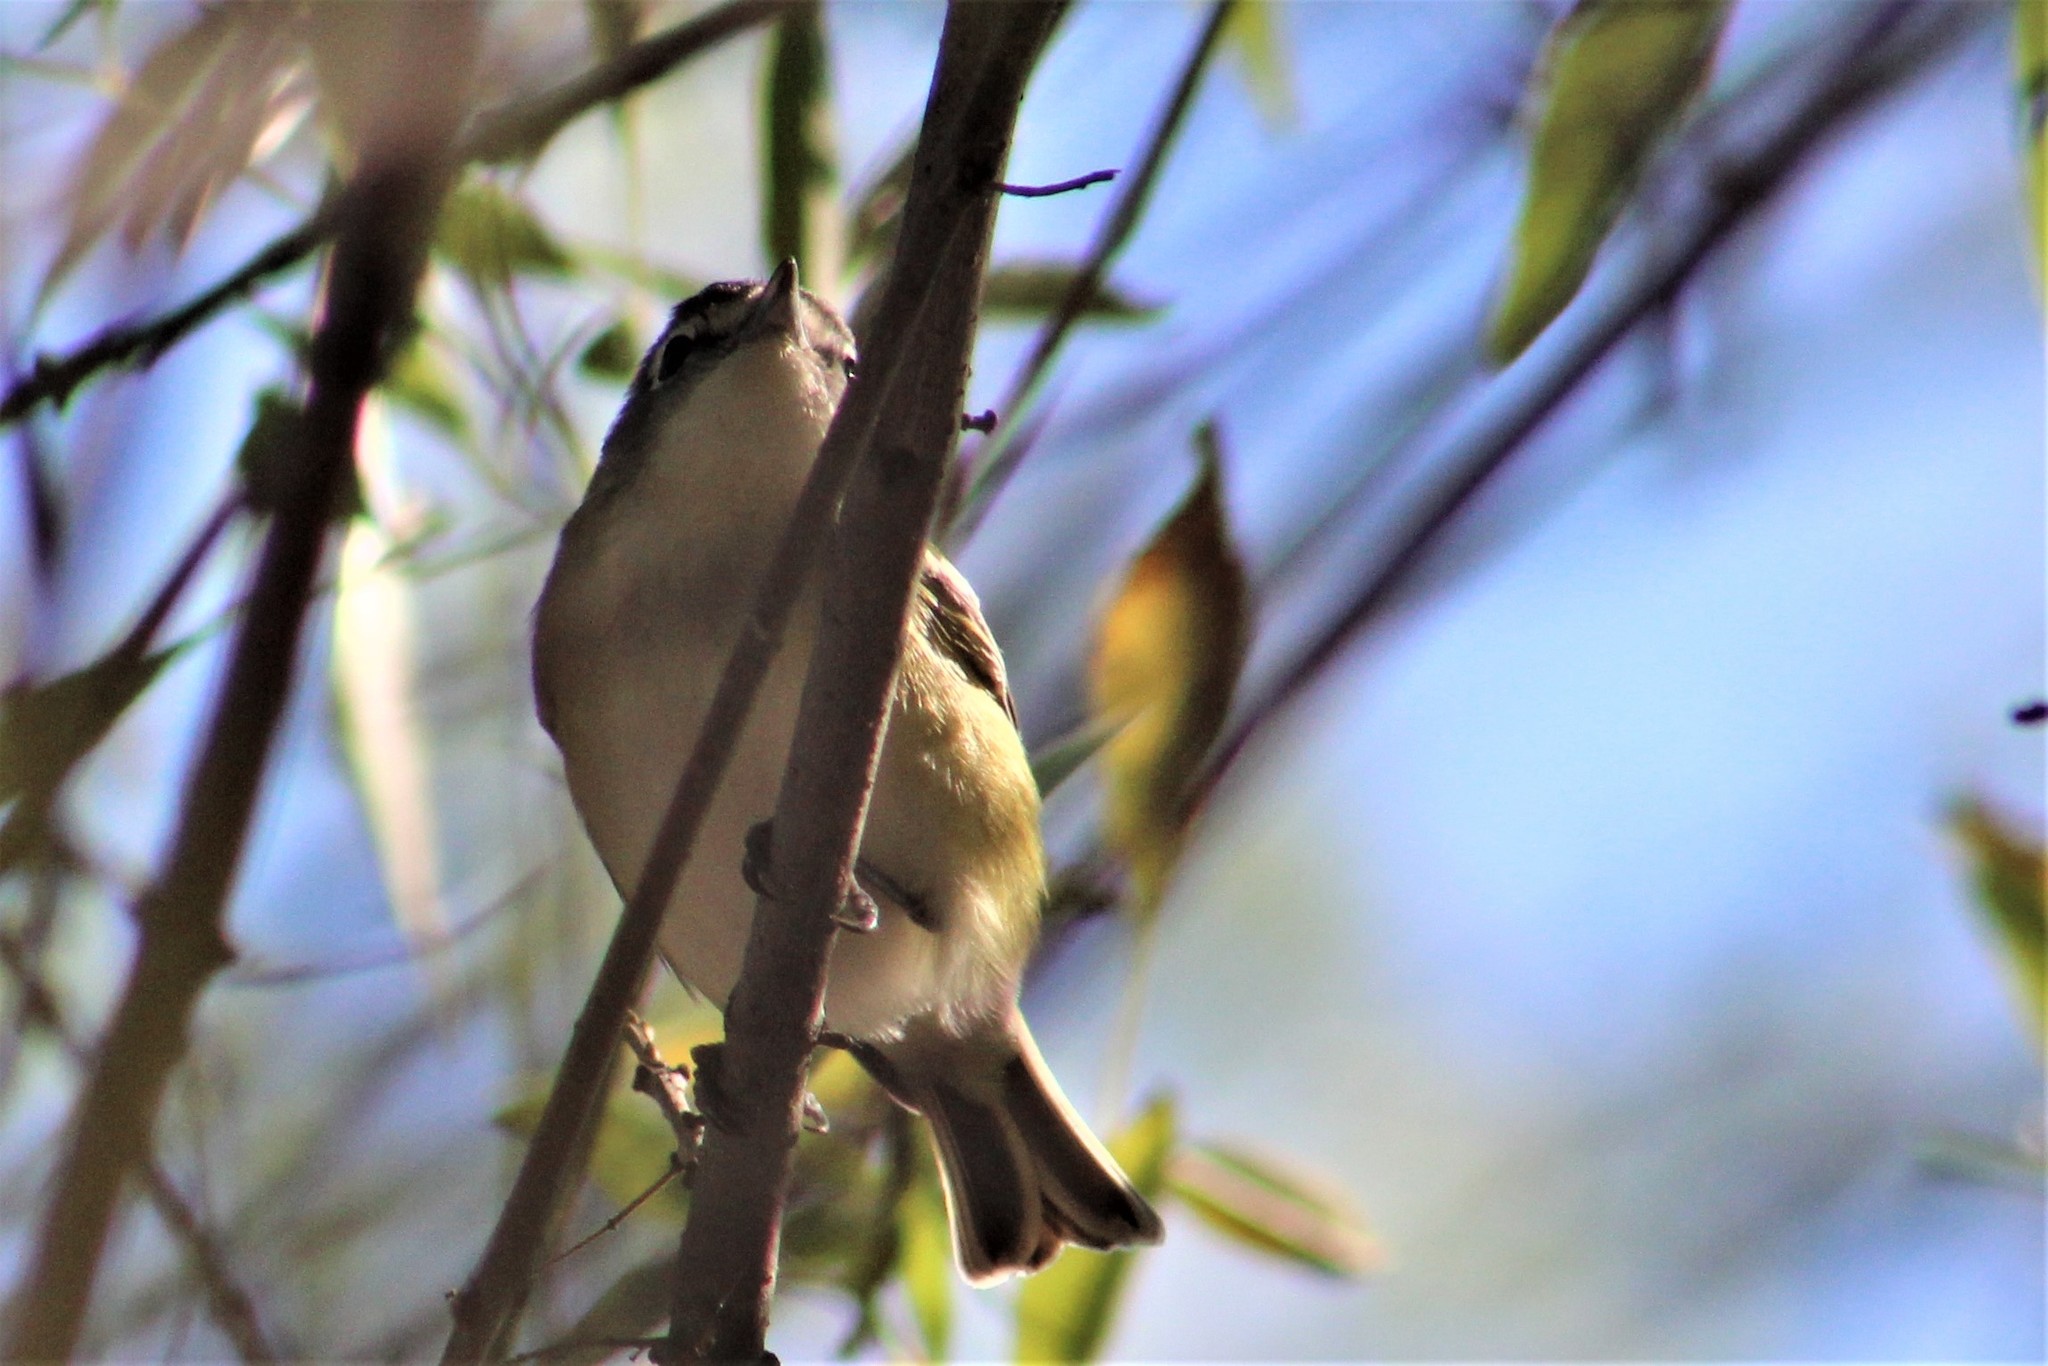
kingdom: Animalia
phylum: Chordata
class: Aves
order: Passeriformes
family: Vireonidae
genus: Vireo
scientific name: Vireo solitarius
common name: Blue-headed vireo
